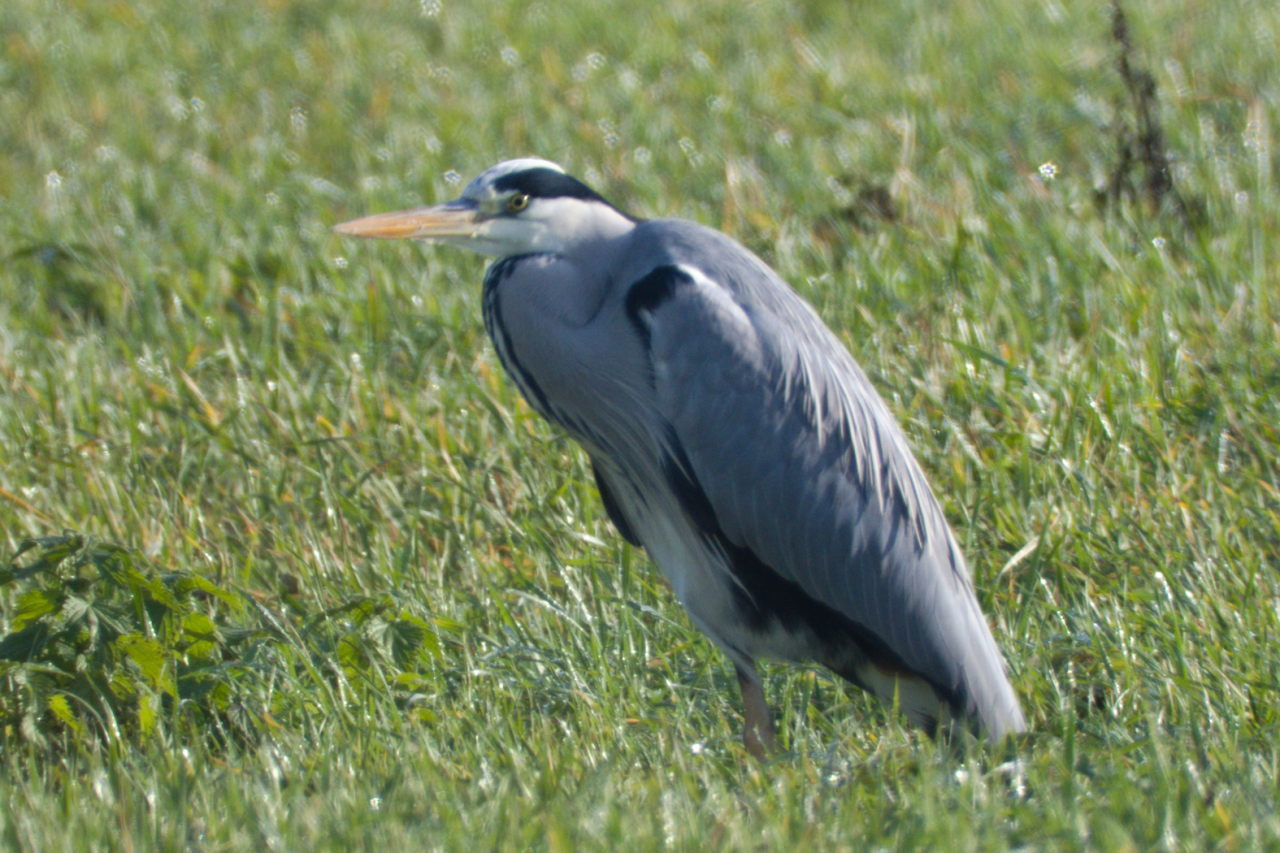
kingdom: Animalia
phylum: Chordata
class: Aves
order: Pelecaniformes
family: Ardeidae
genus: Ardea
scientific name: Ardea cinerea
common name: Grey heron
